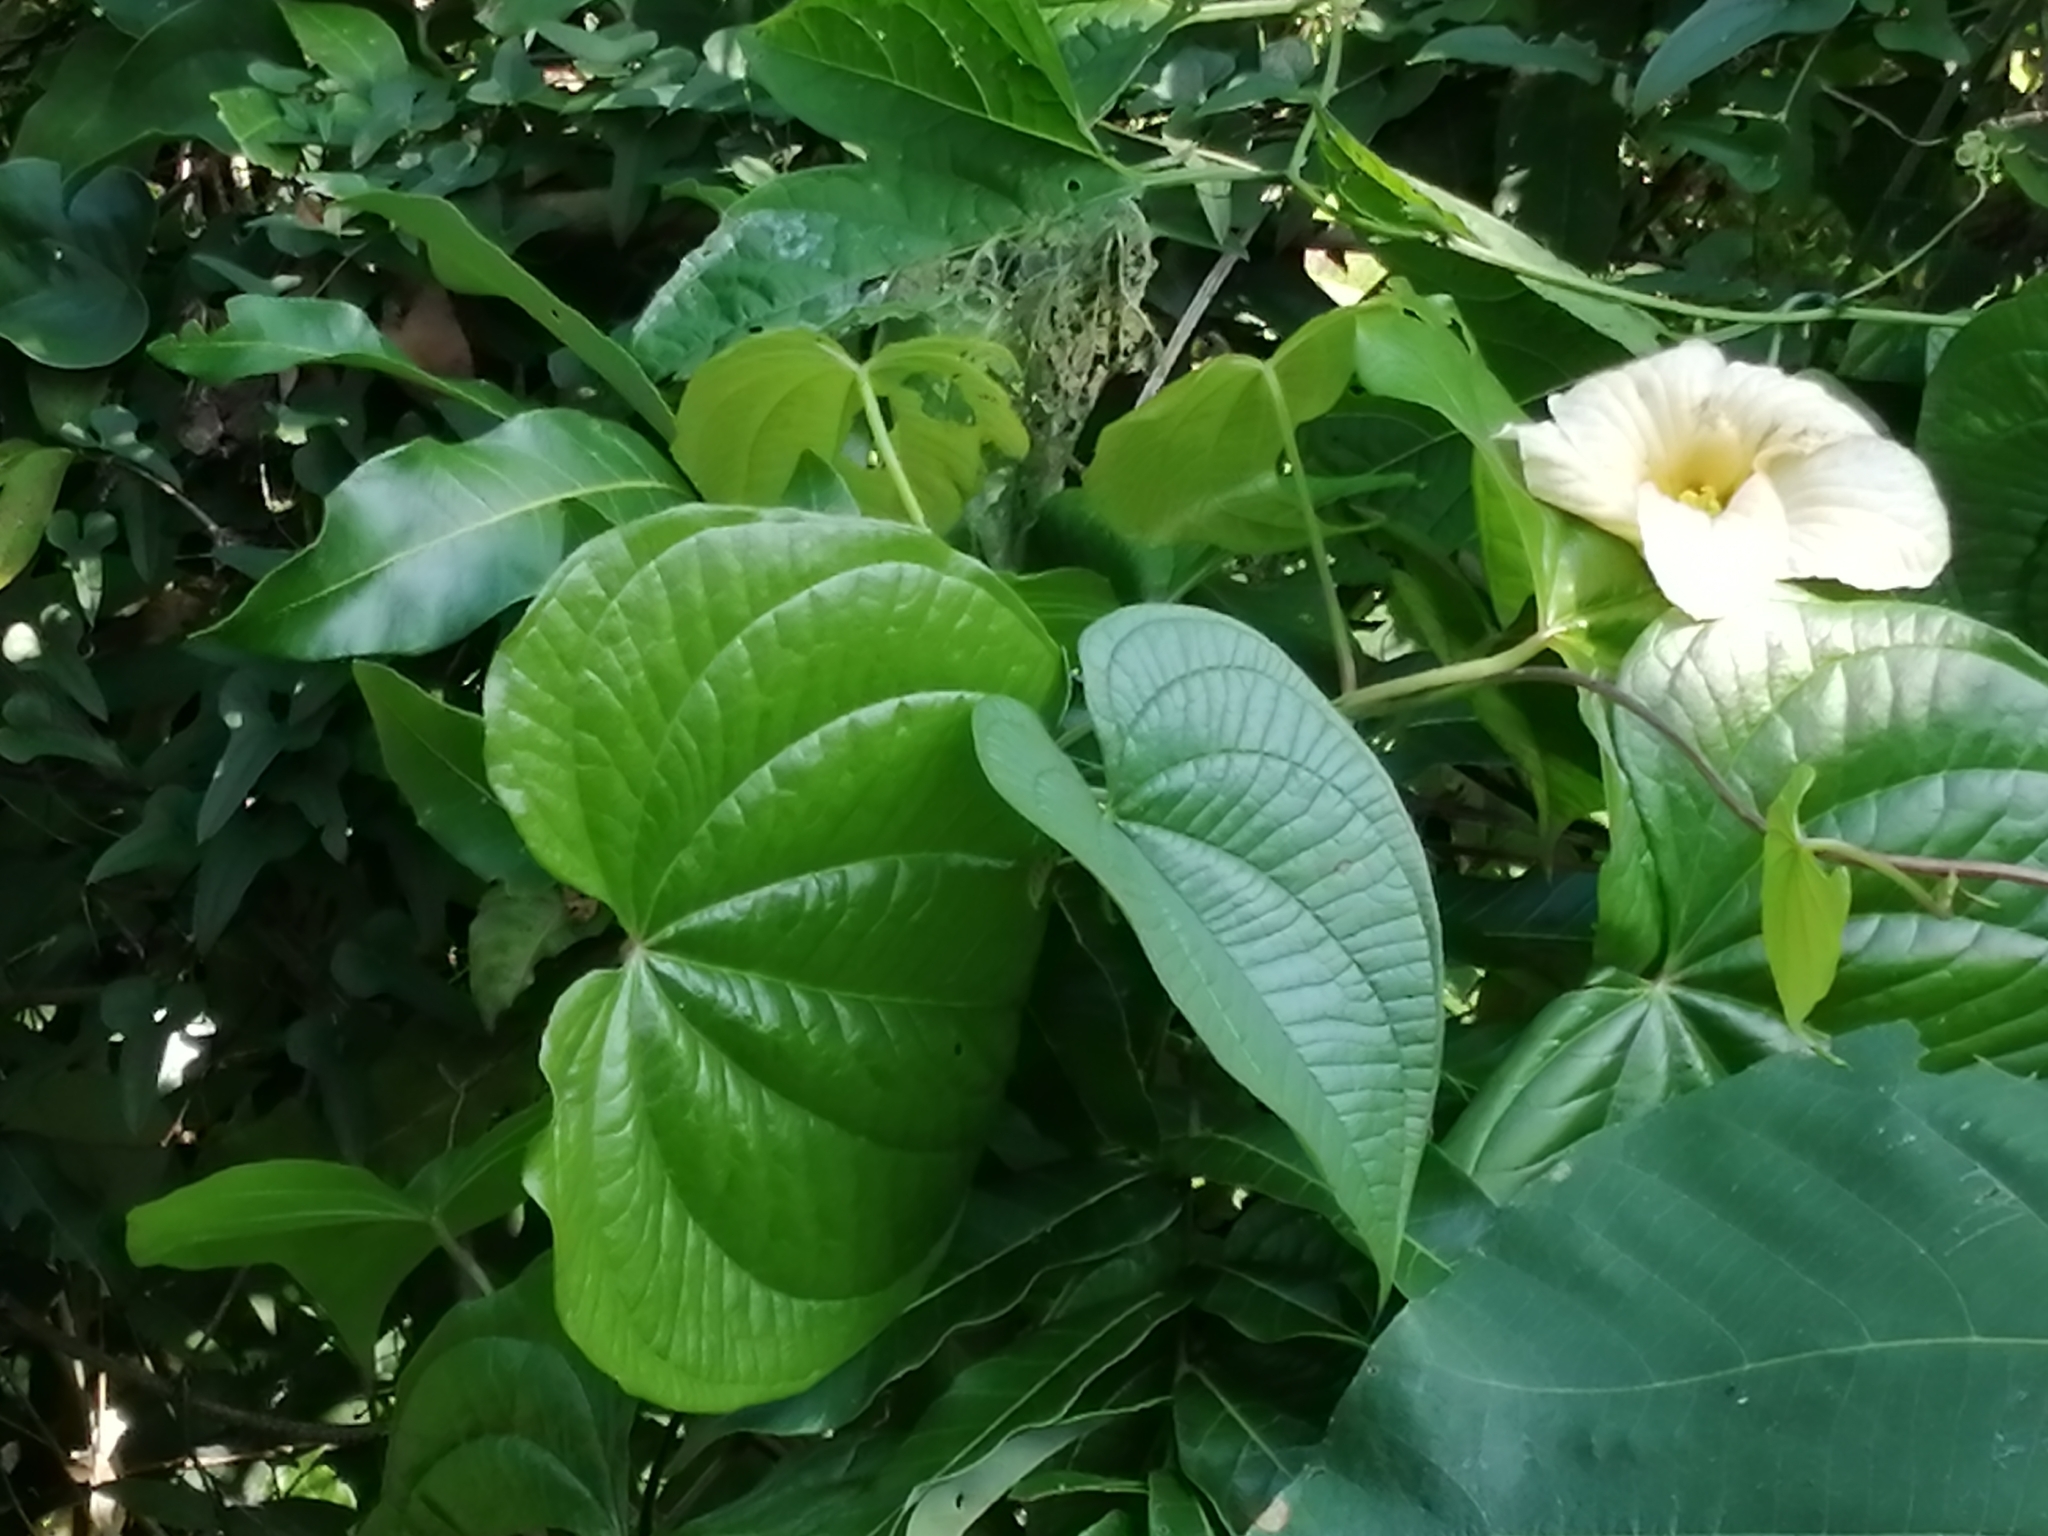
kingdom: Plantae
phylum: Tracheophyta
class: Liliopsida
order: Dioscoreales
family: Dioscoreaceae
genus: Dioscorea
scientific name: Dioscorea bulbifera
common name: Air yam
